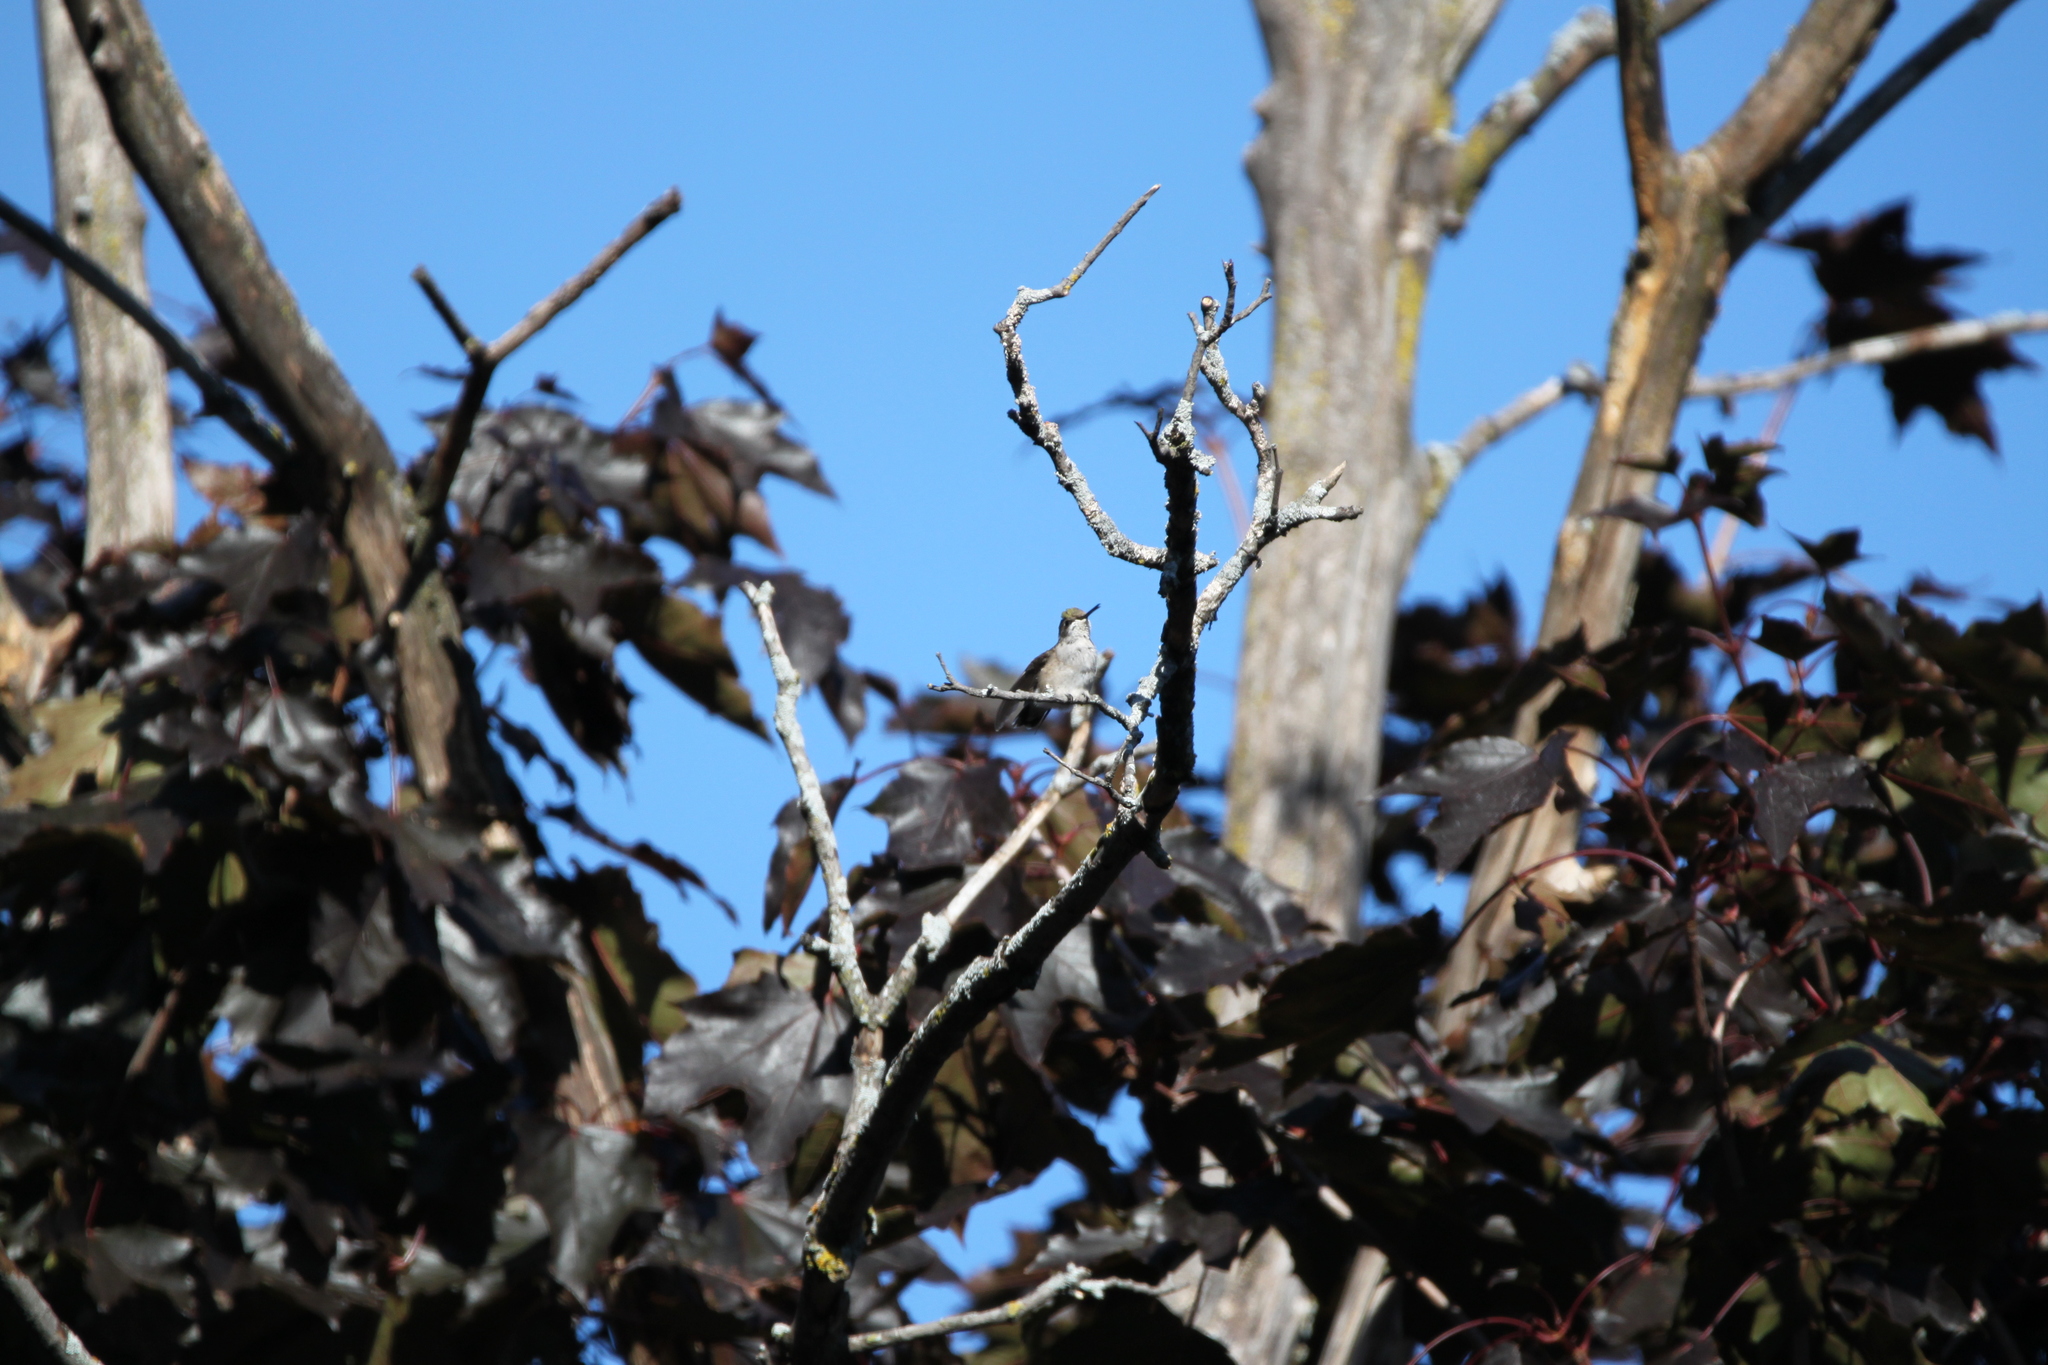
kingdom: Animalia
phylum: Chordata
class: Aves
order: Apodiformes
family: Trochilidae
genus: Archilochus
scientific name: Archilochus colubris
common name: Ruby-throated hummingbird
